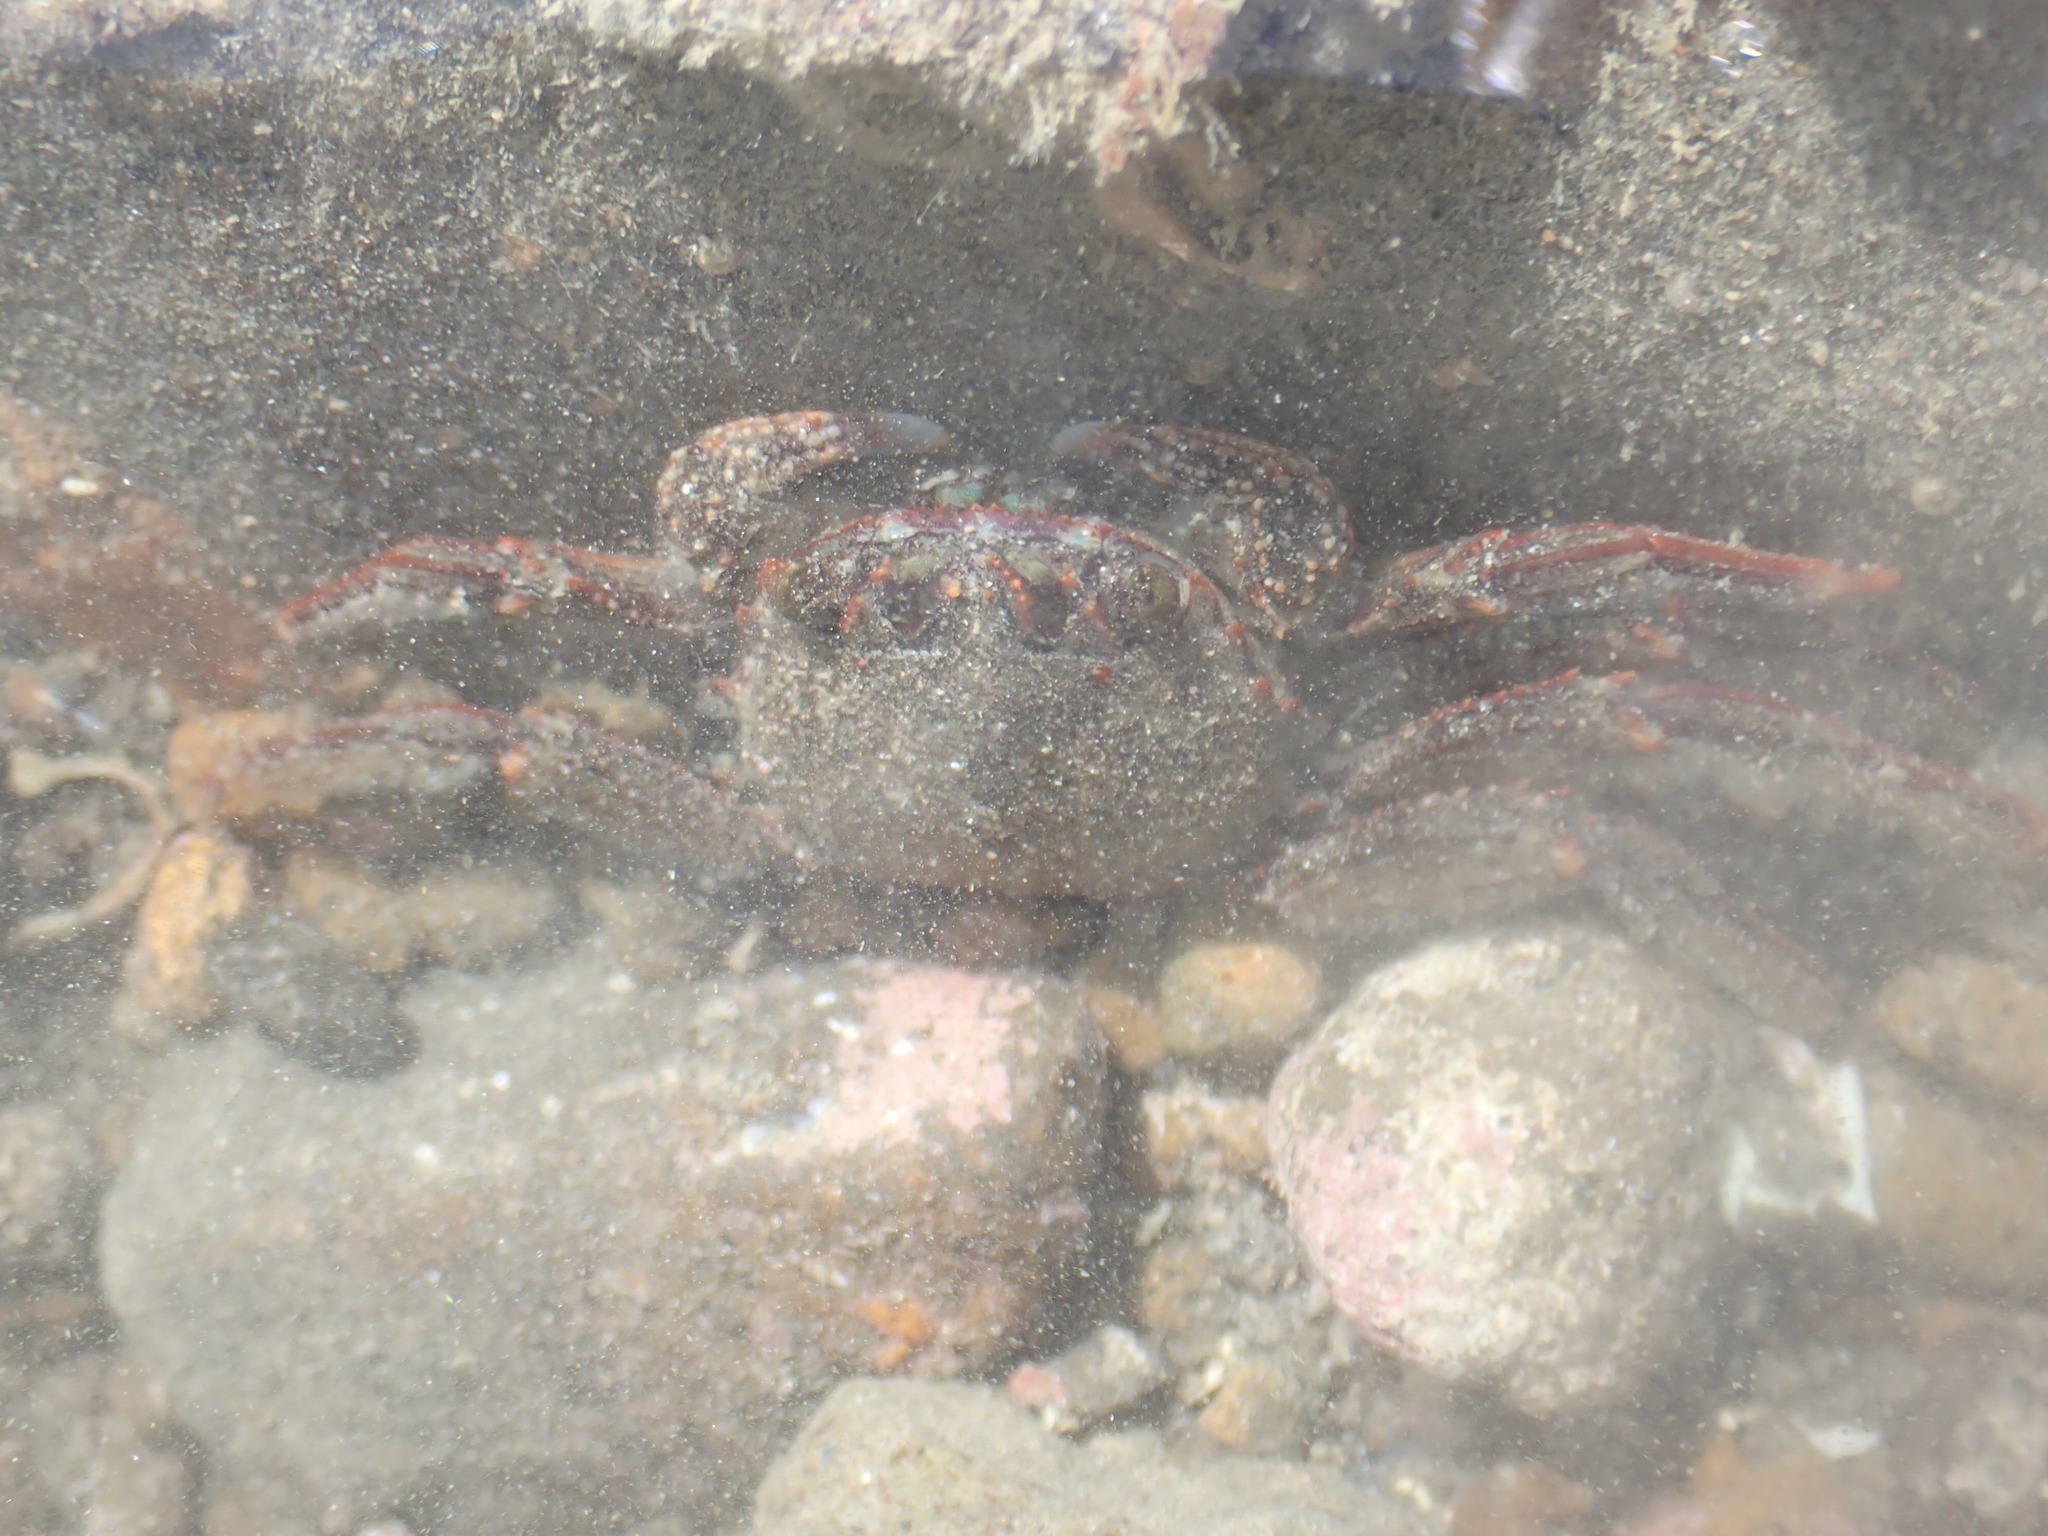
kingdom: Animalia
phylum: Arthropoda
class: Malacostraca
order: Decapoda
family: Plagusiidae
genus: Guinusia
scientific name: Guinusia chabrus
